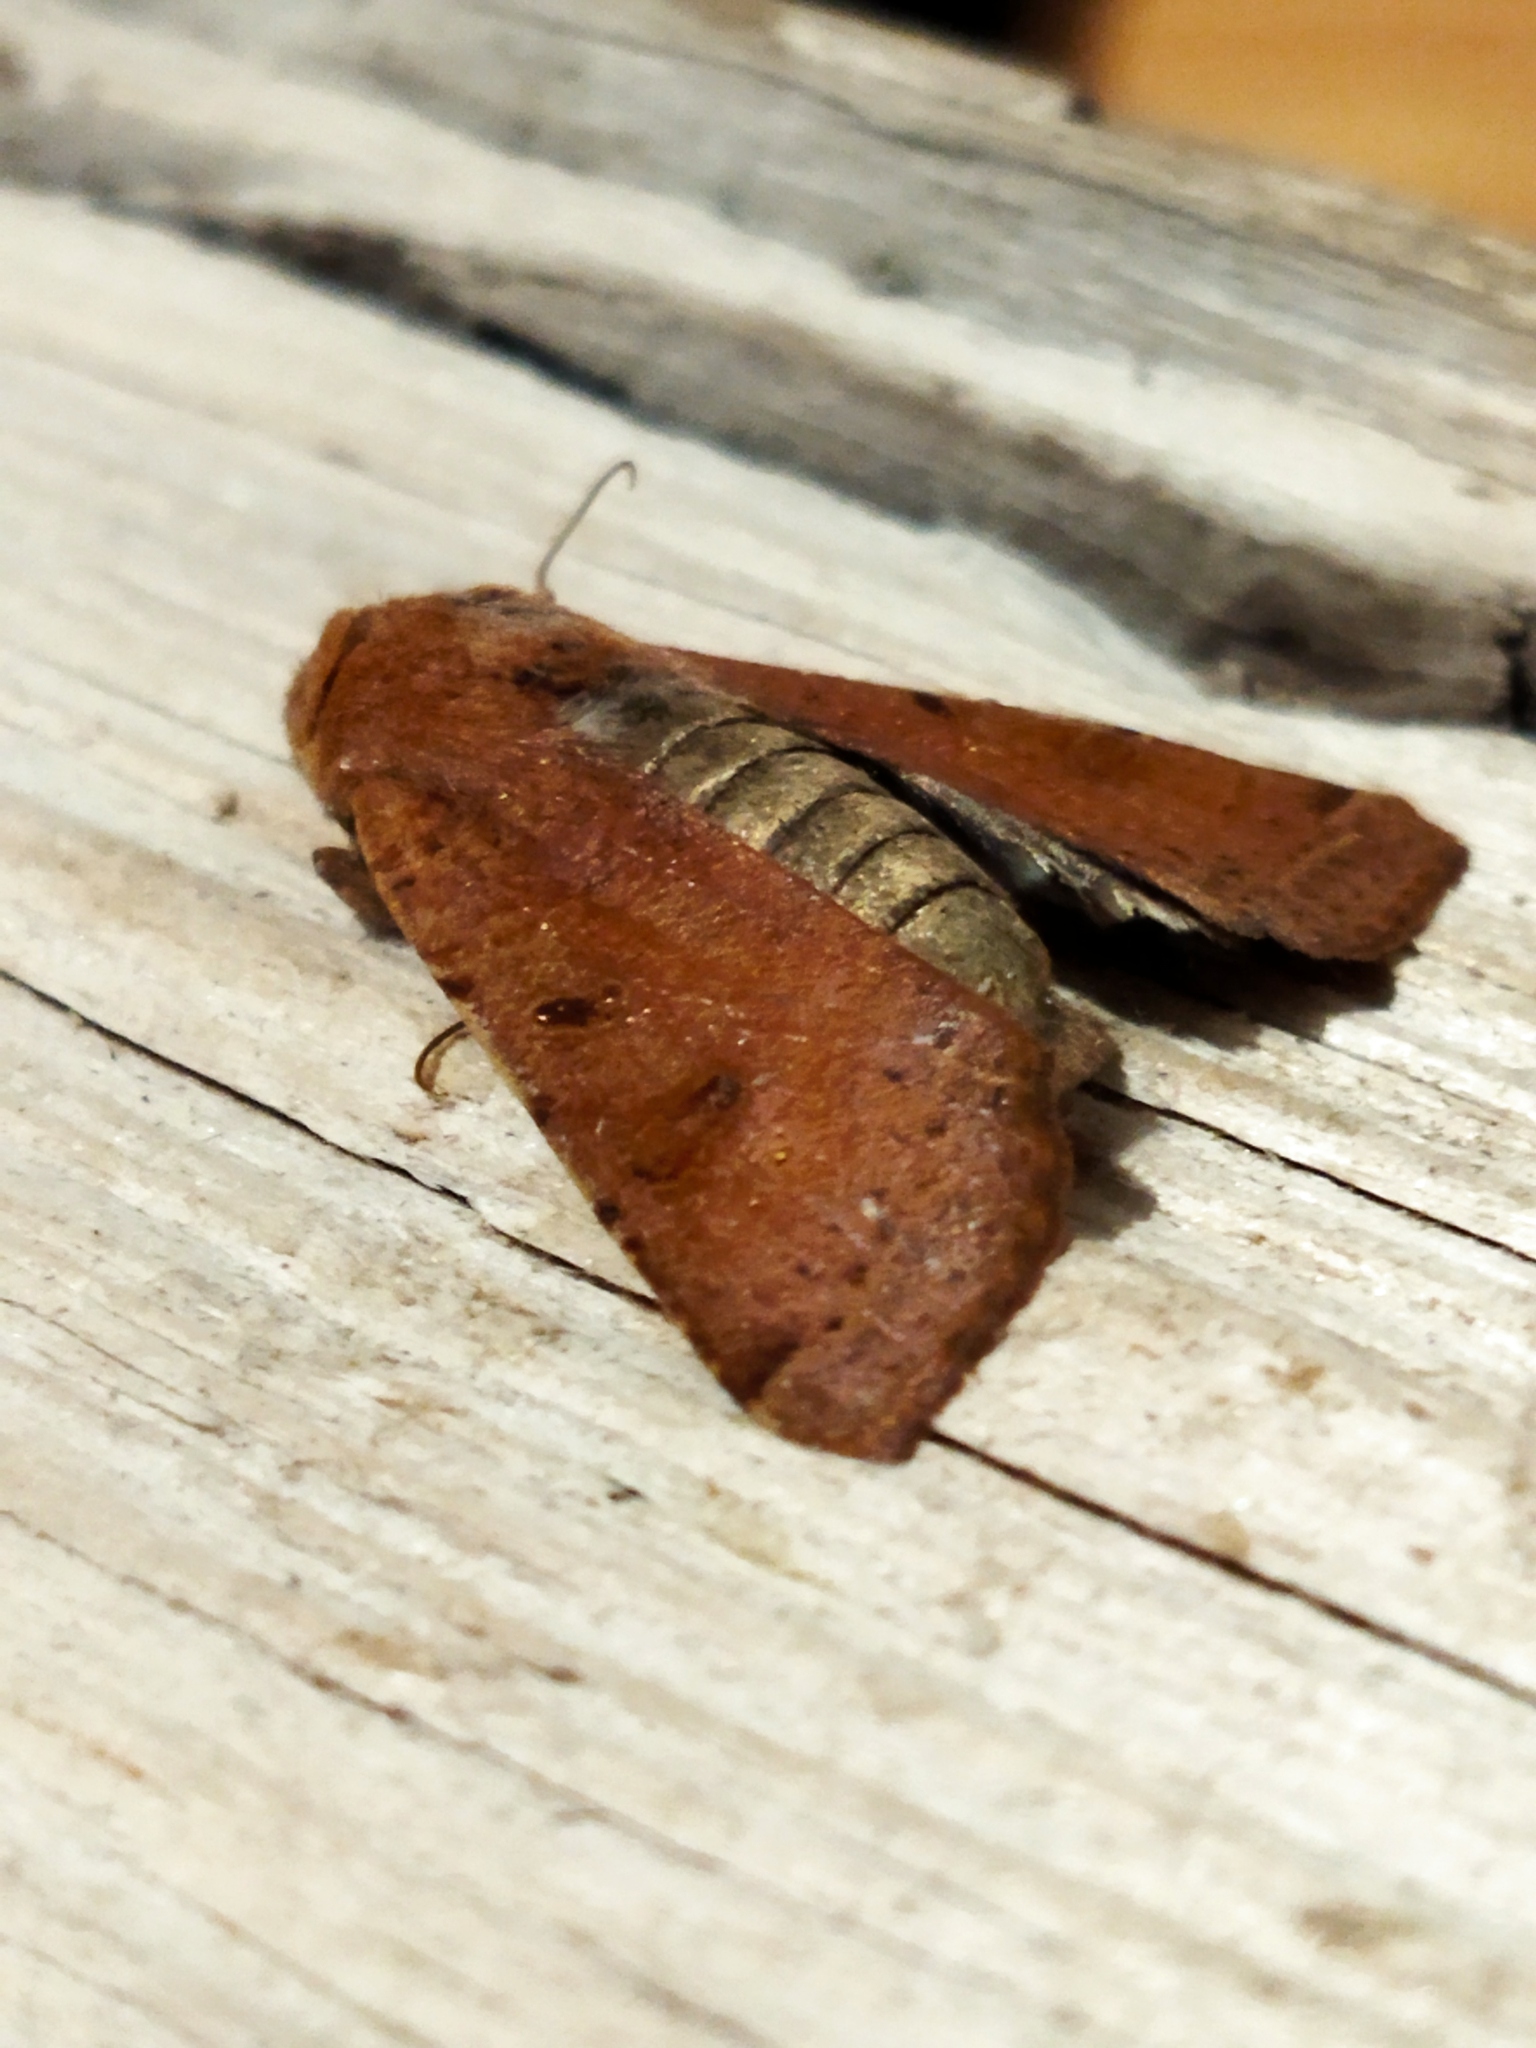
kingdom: Animalia
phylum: Arthropoda
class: Insecta
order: Lepidoptera
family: Noctuidae
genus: Agrochola
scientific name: Agrochola lychnidis
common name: Beaded chestnut
